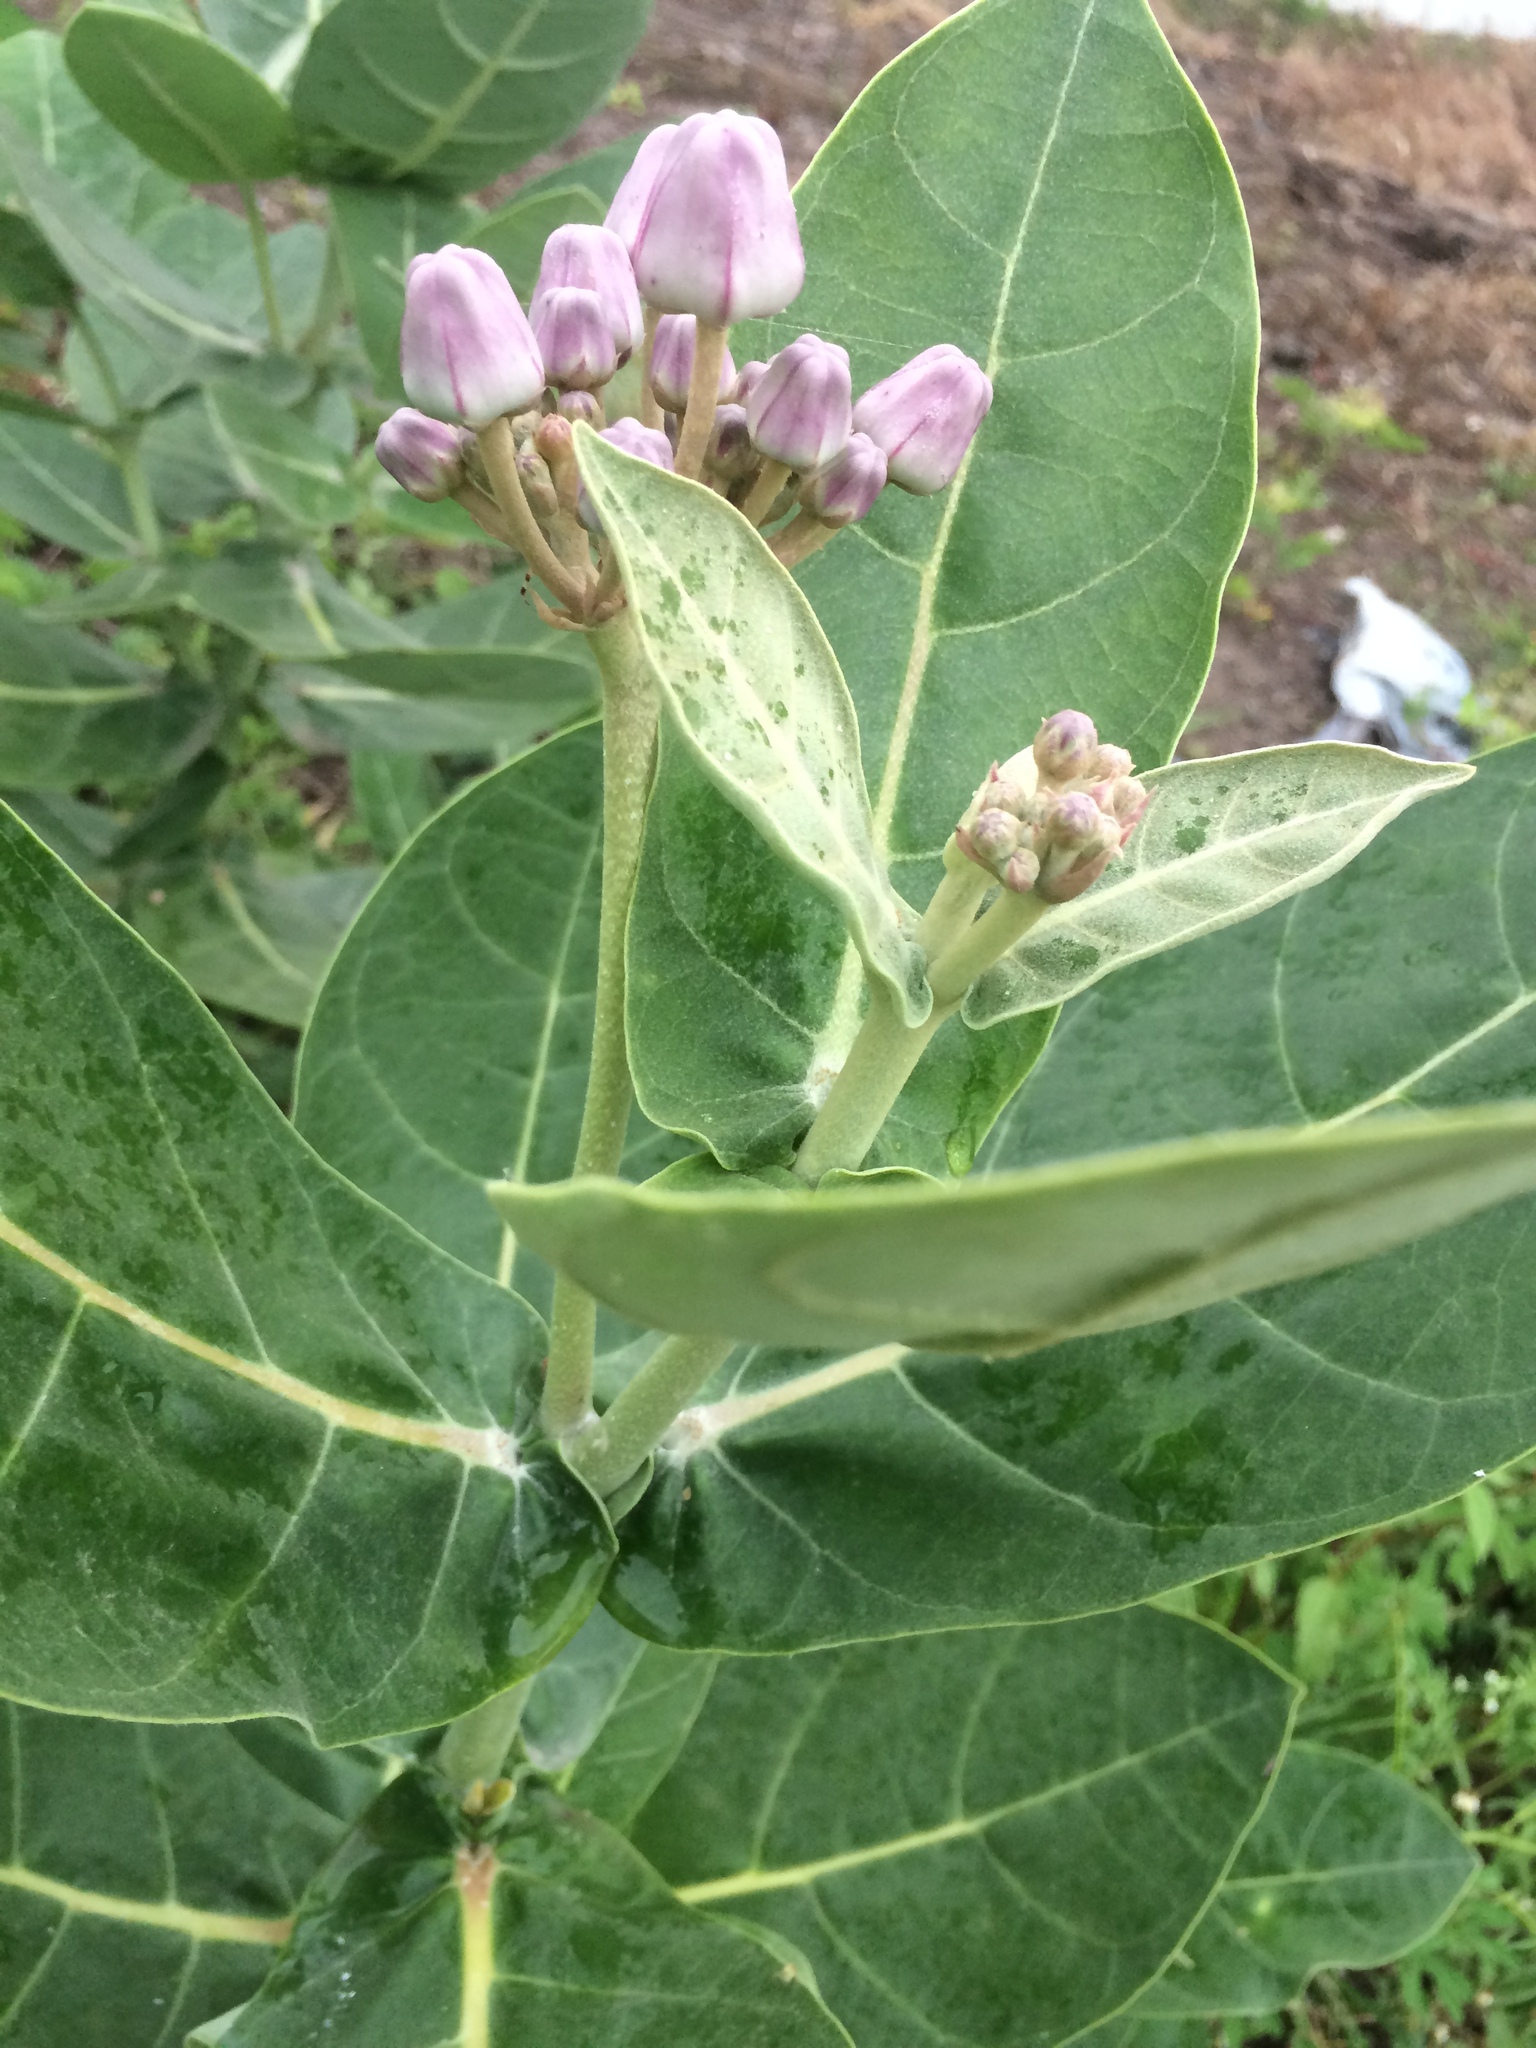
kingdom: Plantae
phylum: Tracheophyta
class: Magnoliopsida
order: Gentianales
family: Apocynaceae
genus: Calotropis
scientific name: Calotropis gigantea
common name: Crown flower
